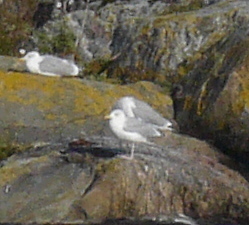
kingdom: Animalia
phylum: Chordata
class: Aves
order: Charadriiformes
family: Laridae
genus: Larus
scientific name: Larus argentatus
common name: Herring gull
